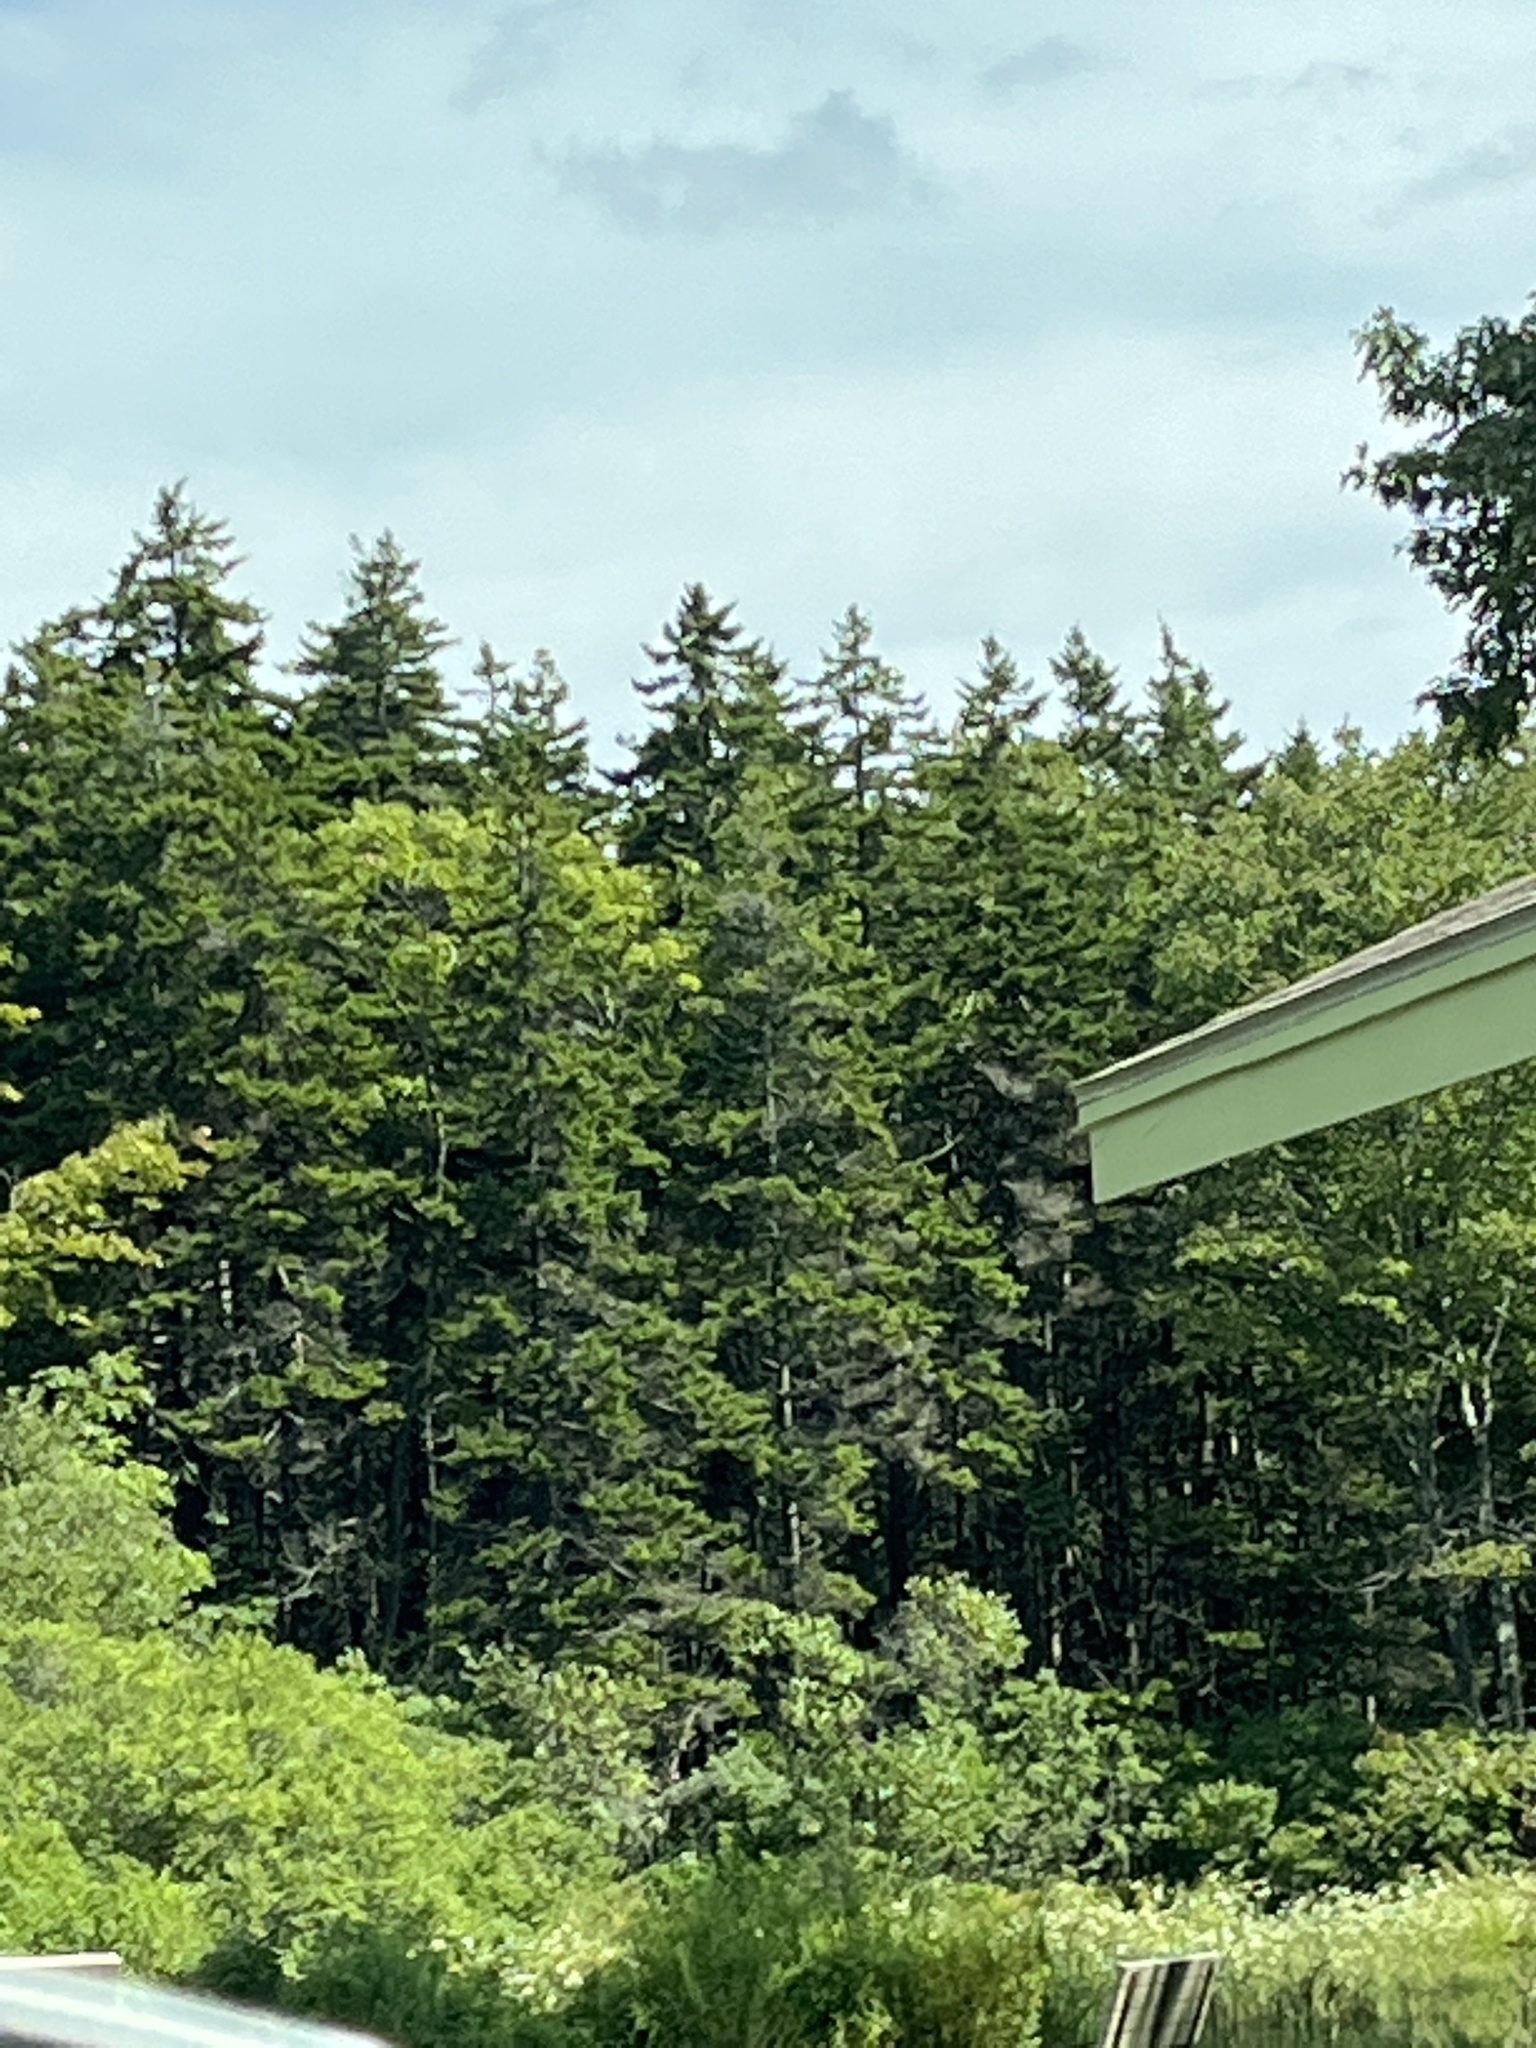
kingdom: Plantae
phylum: Tracheophyta
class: Pinopsida
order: Pinales
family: Pinaceae
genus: Pinus
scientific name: Pinus strobus
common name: Weymouth pine
